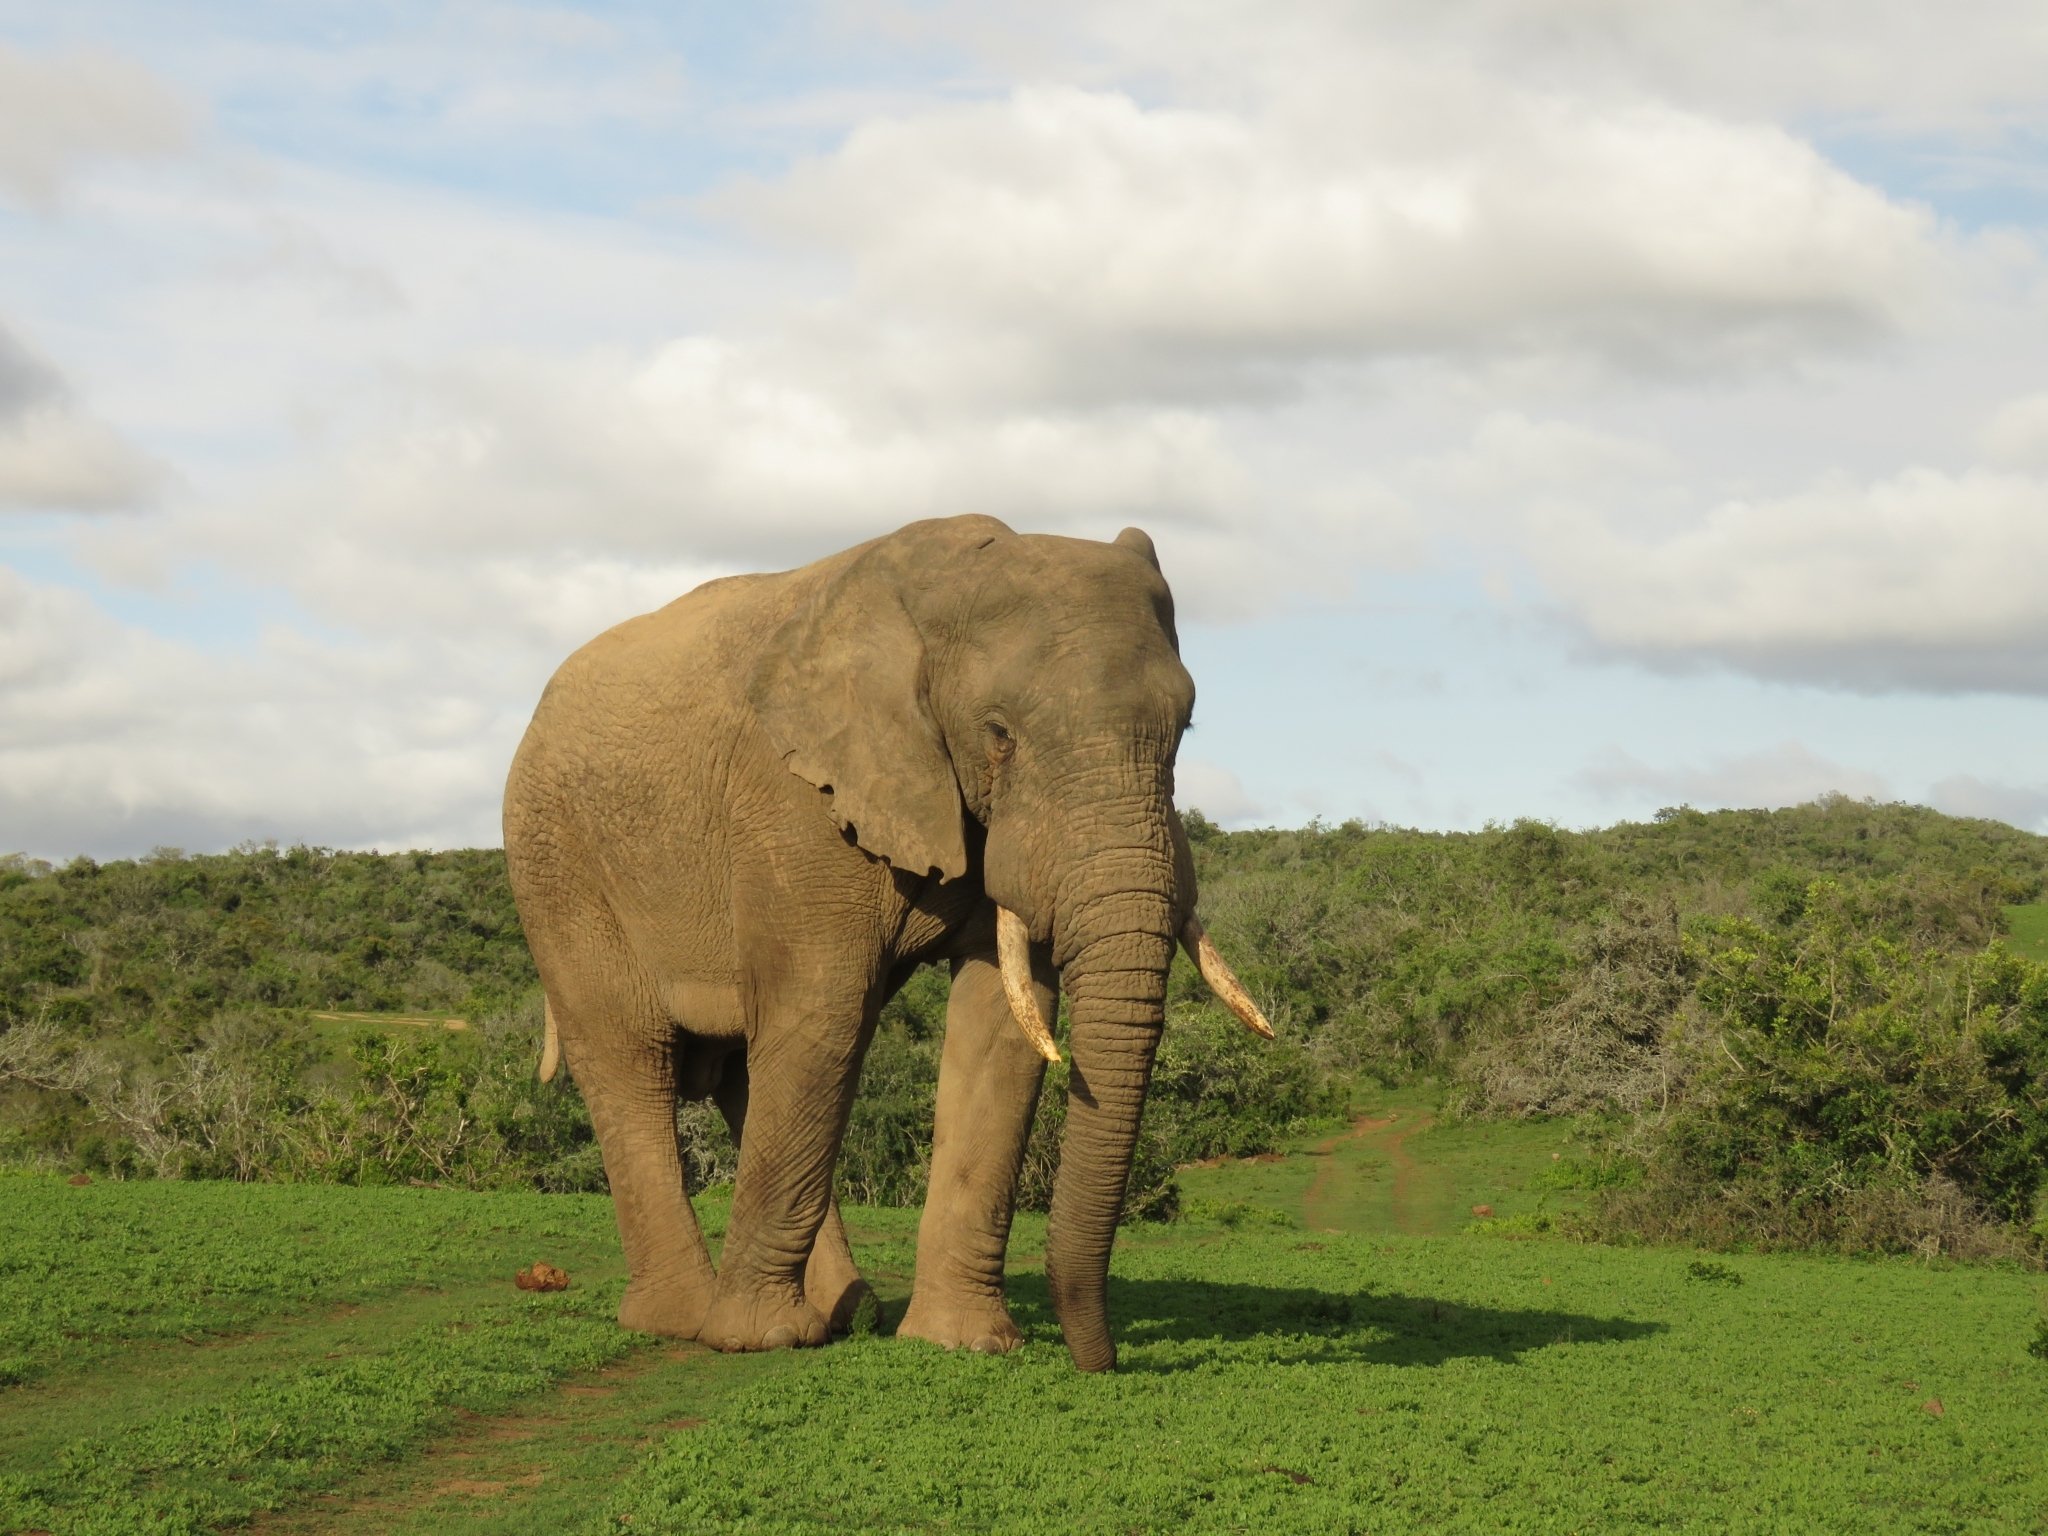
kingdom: Animalia
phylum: Chordata
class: Mammalia
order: Proboscidea
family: Elephantidae
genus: Loxodonta
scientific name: Loxodonta africana
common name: African elephant
